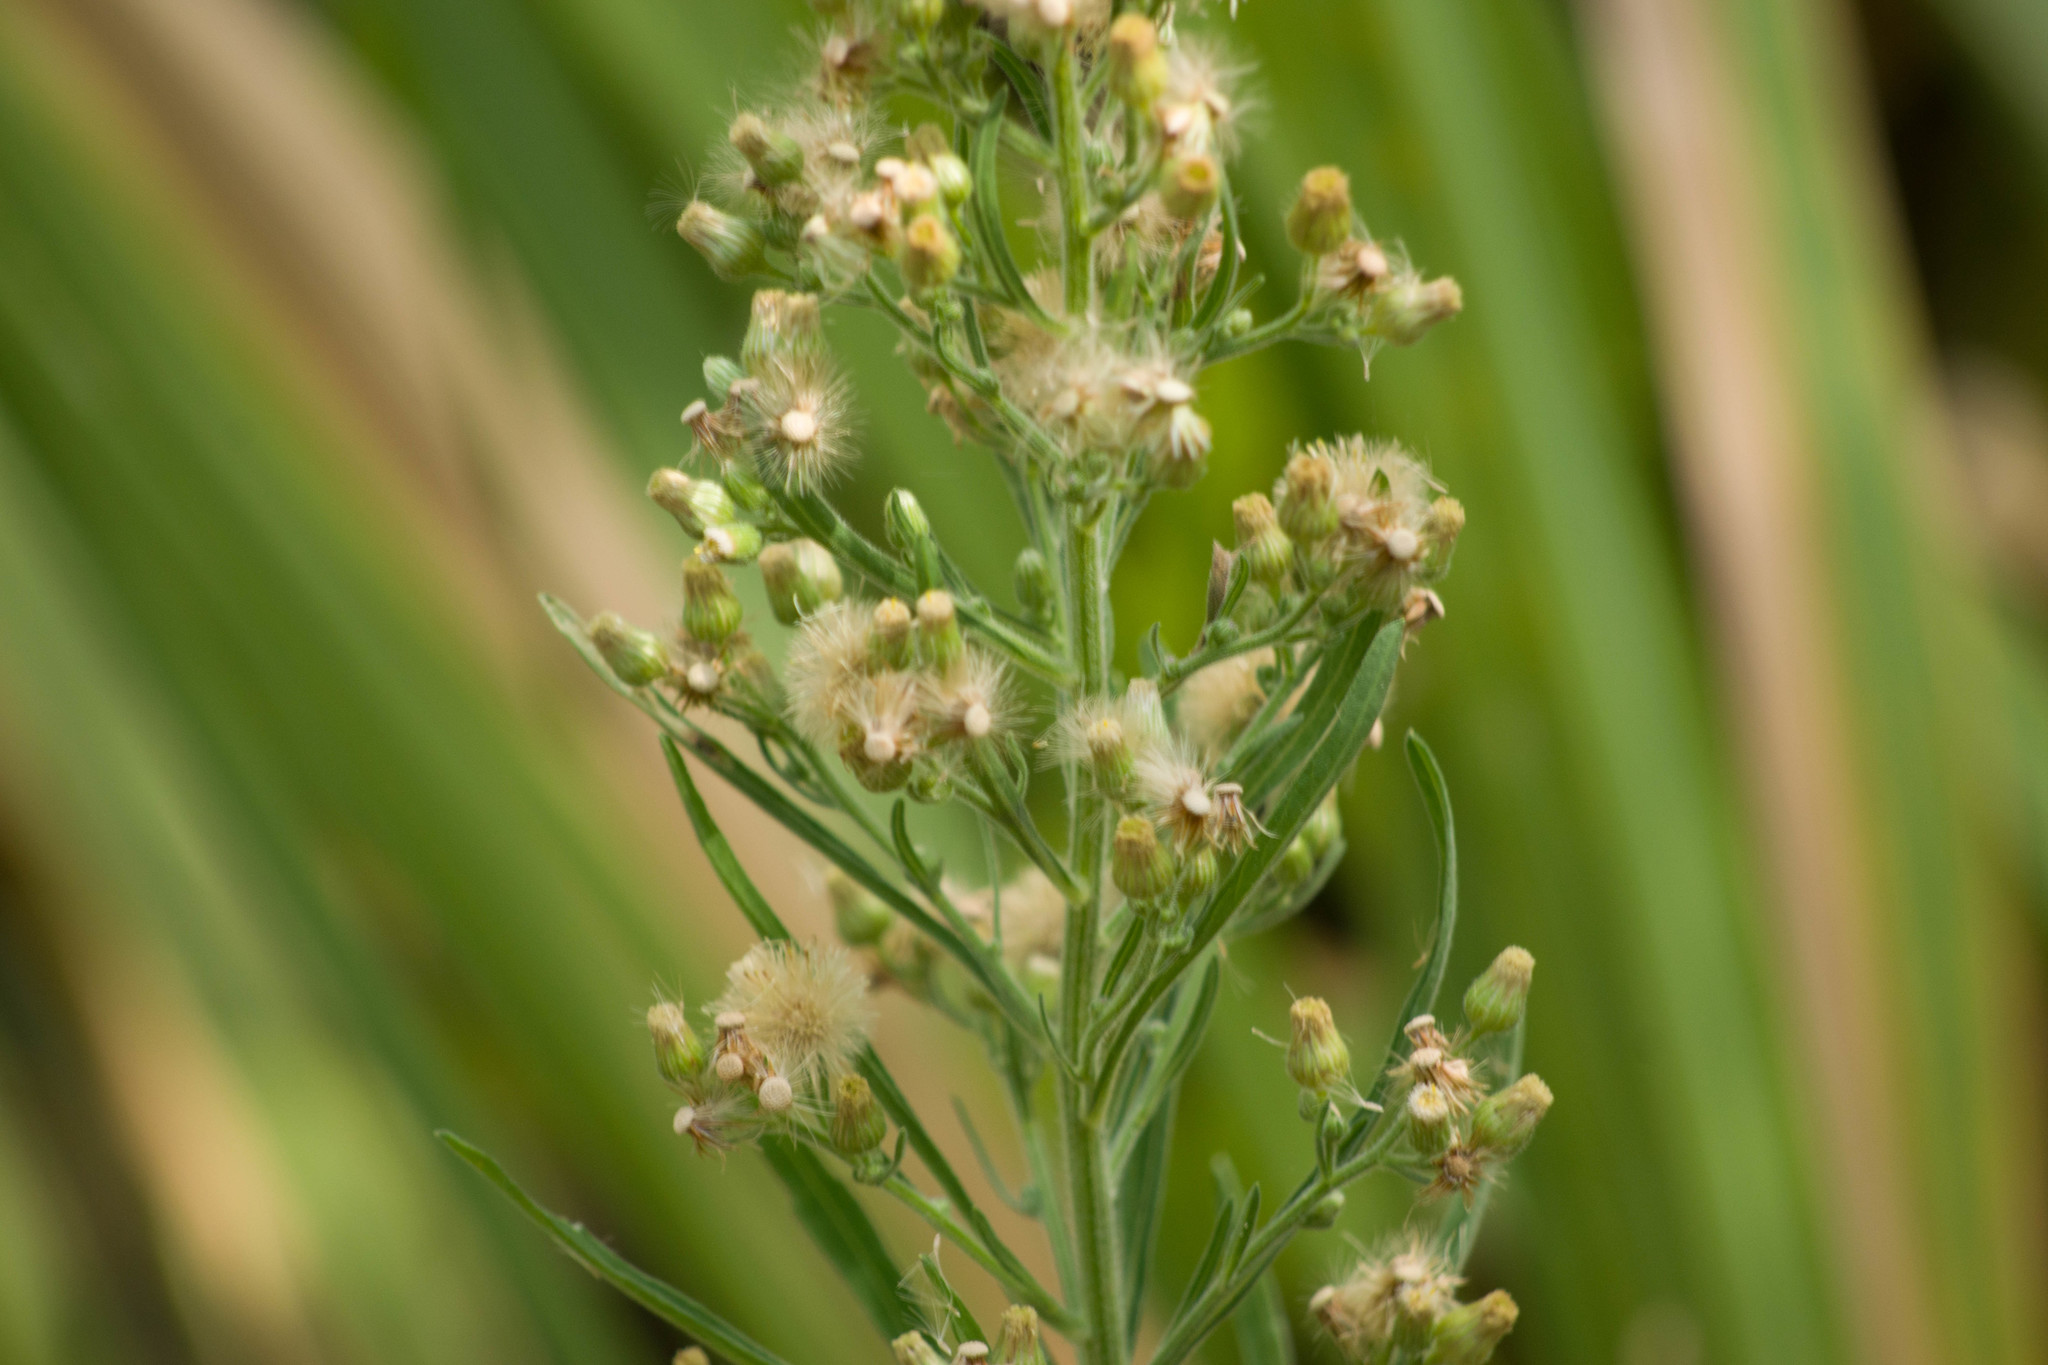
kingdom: Plantae
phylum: Tracheophyta
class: Magnoliopsida
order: Asterales
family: Asteraceae
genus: Erigeron
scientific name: Erigeron sumatrensis
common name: Daisy
